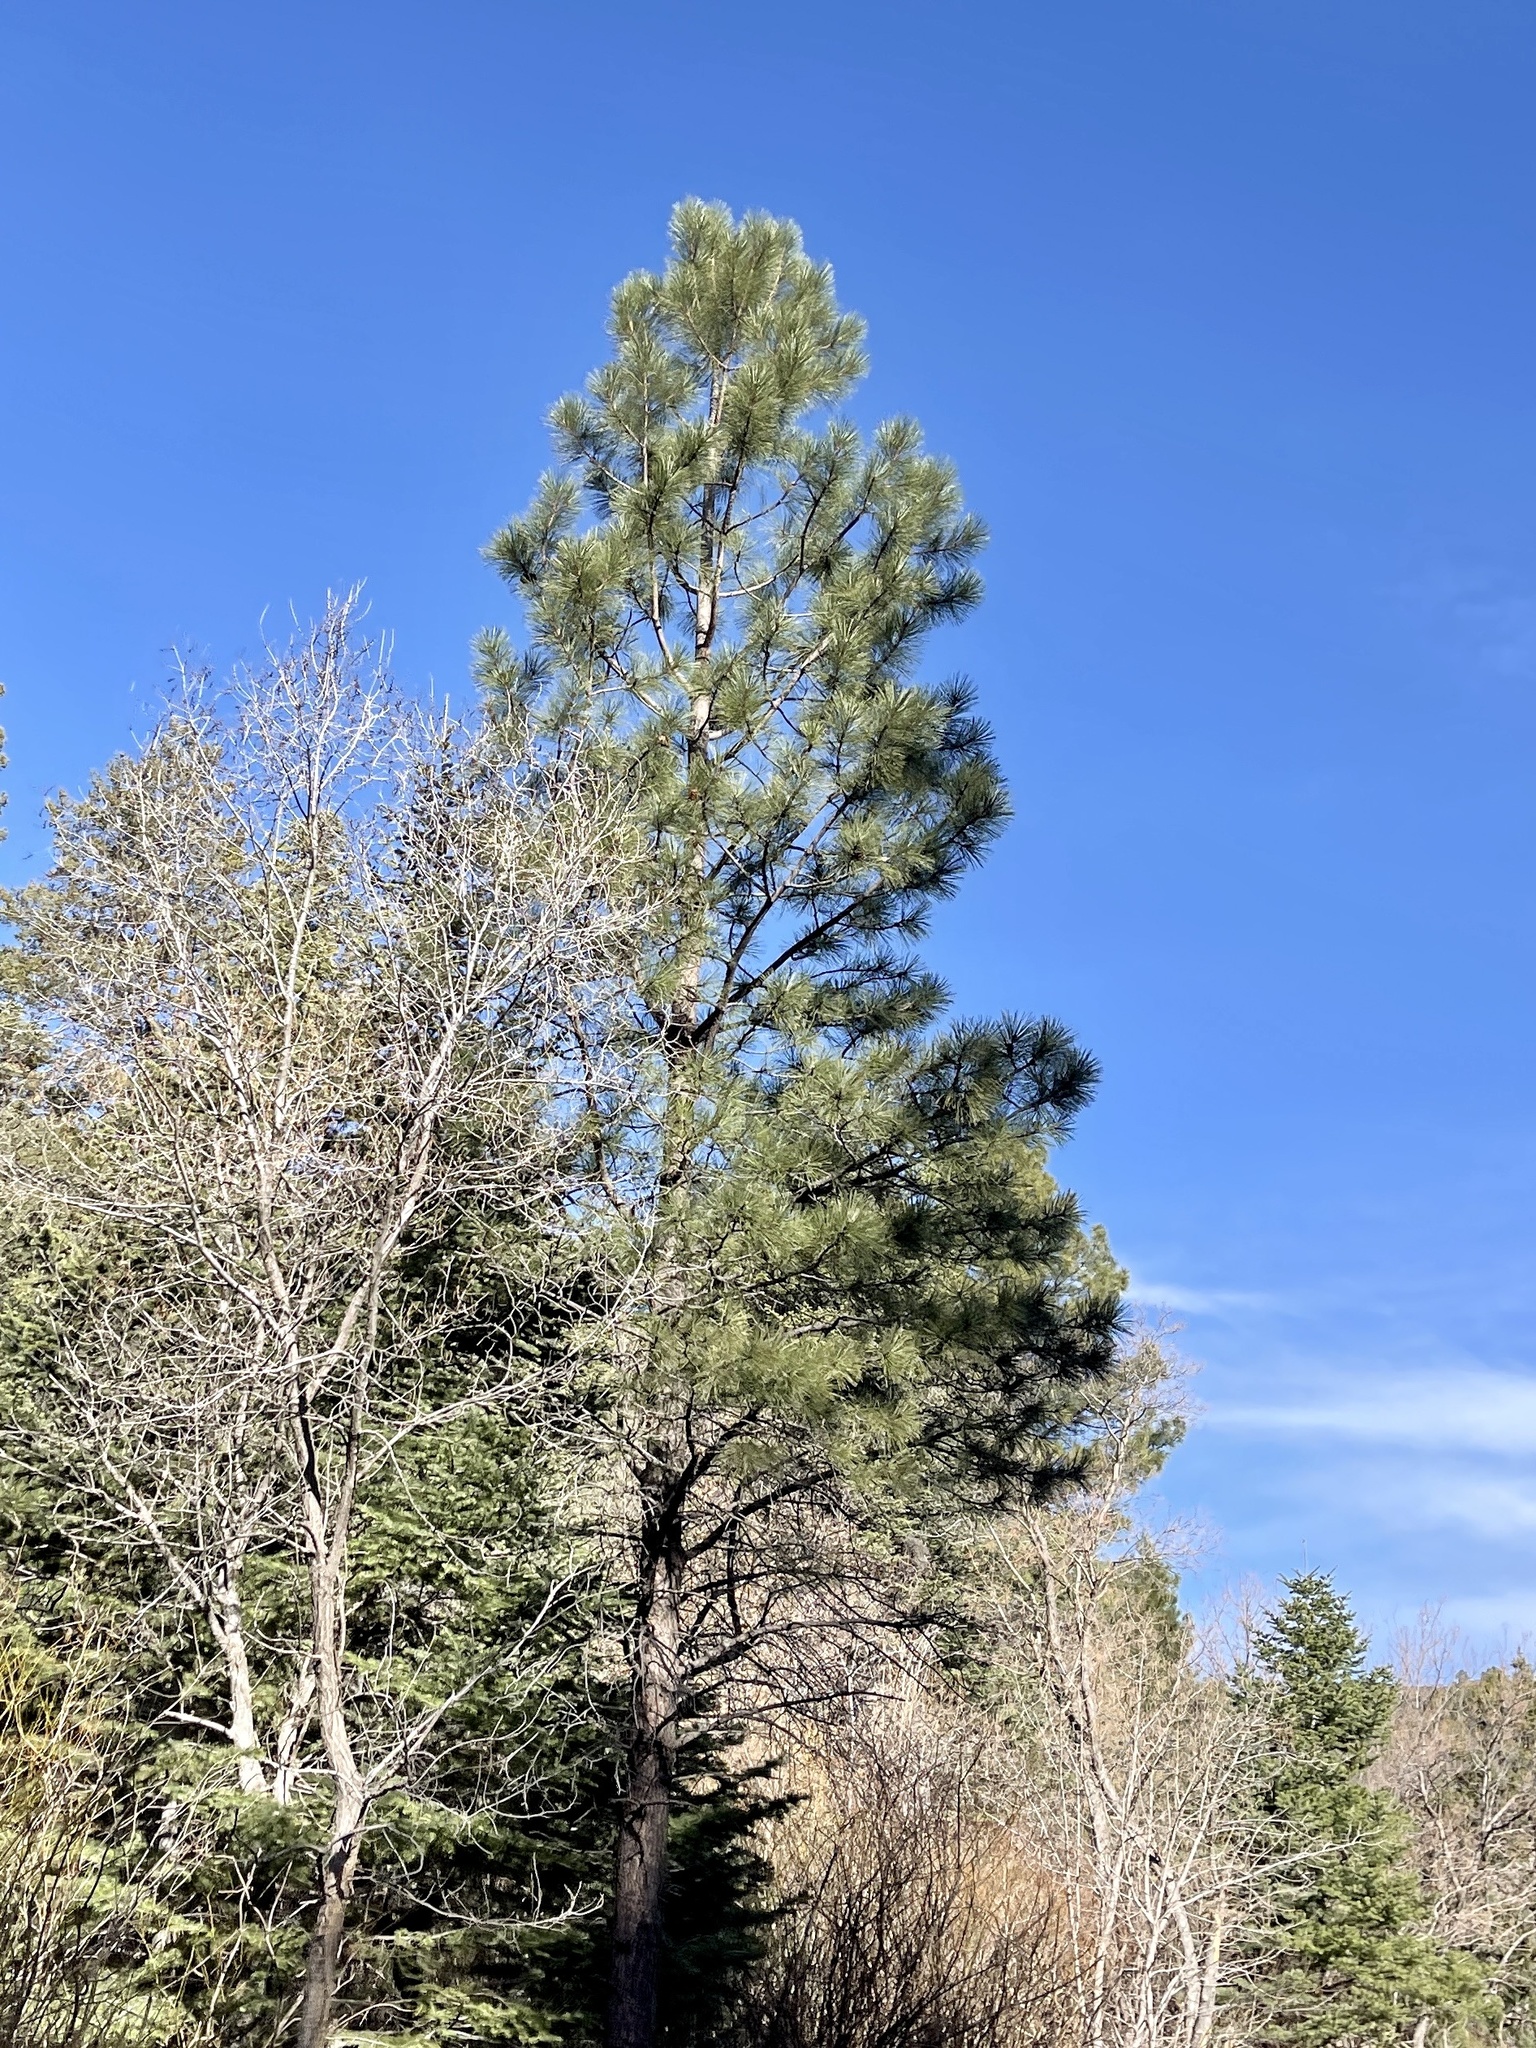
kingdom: Plantae
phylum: Tracheophyta
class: Pinopsida
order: Pinales
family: Pinaceae
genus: Pinus
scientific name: Pinus ponderosa
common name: Western yellow-pine
